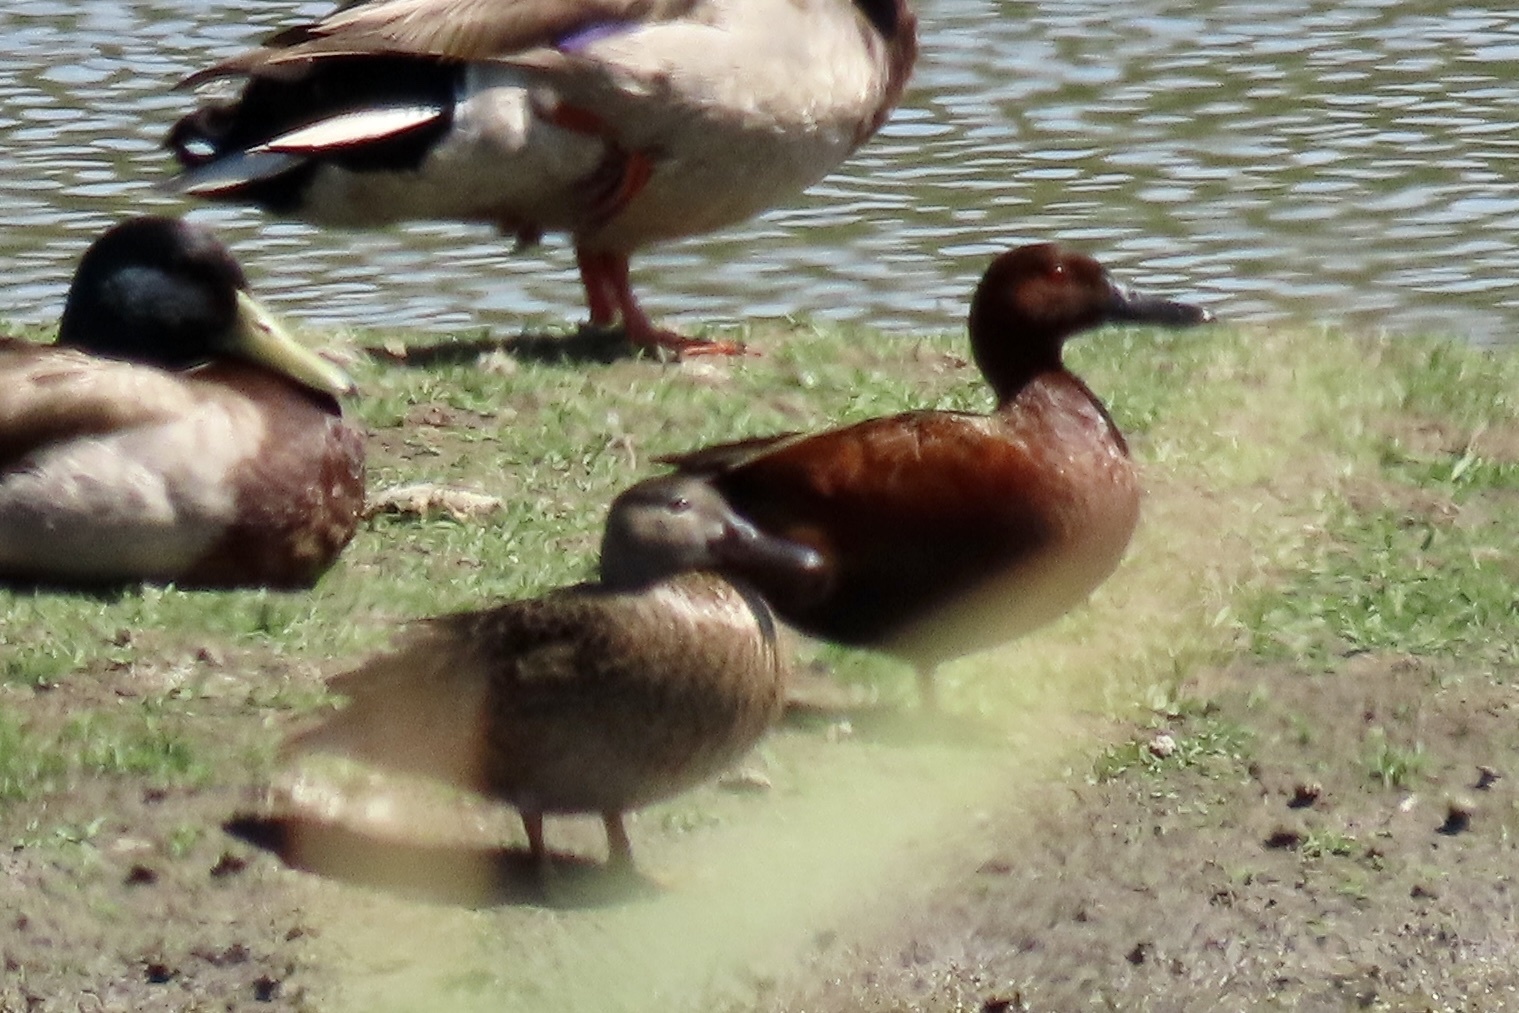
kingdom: Animalia
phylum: Chordata
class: Aves
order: Anseriformes
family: Anatidae
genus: Spatula
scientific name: Spatula cyanoptera
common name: Cinnamon teal
